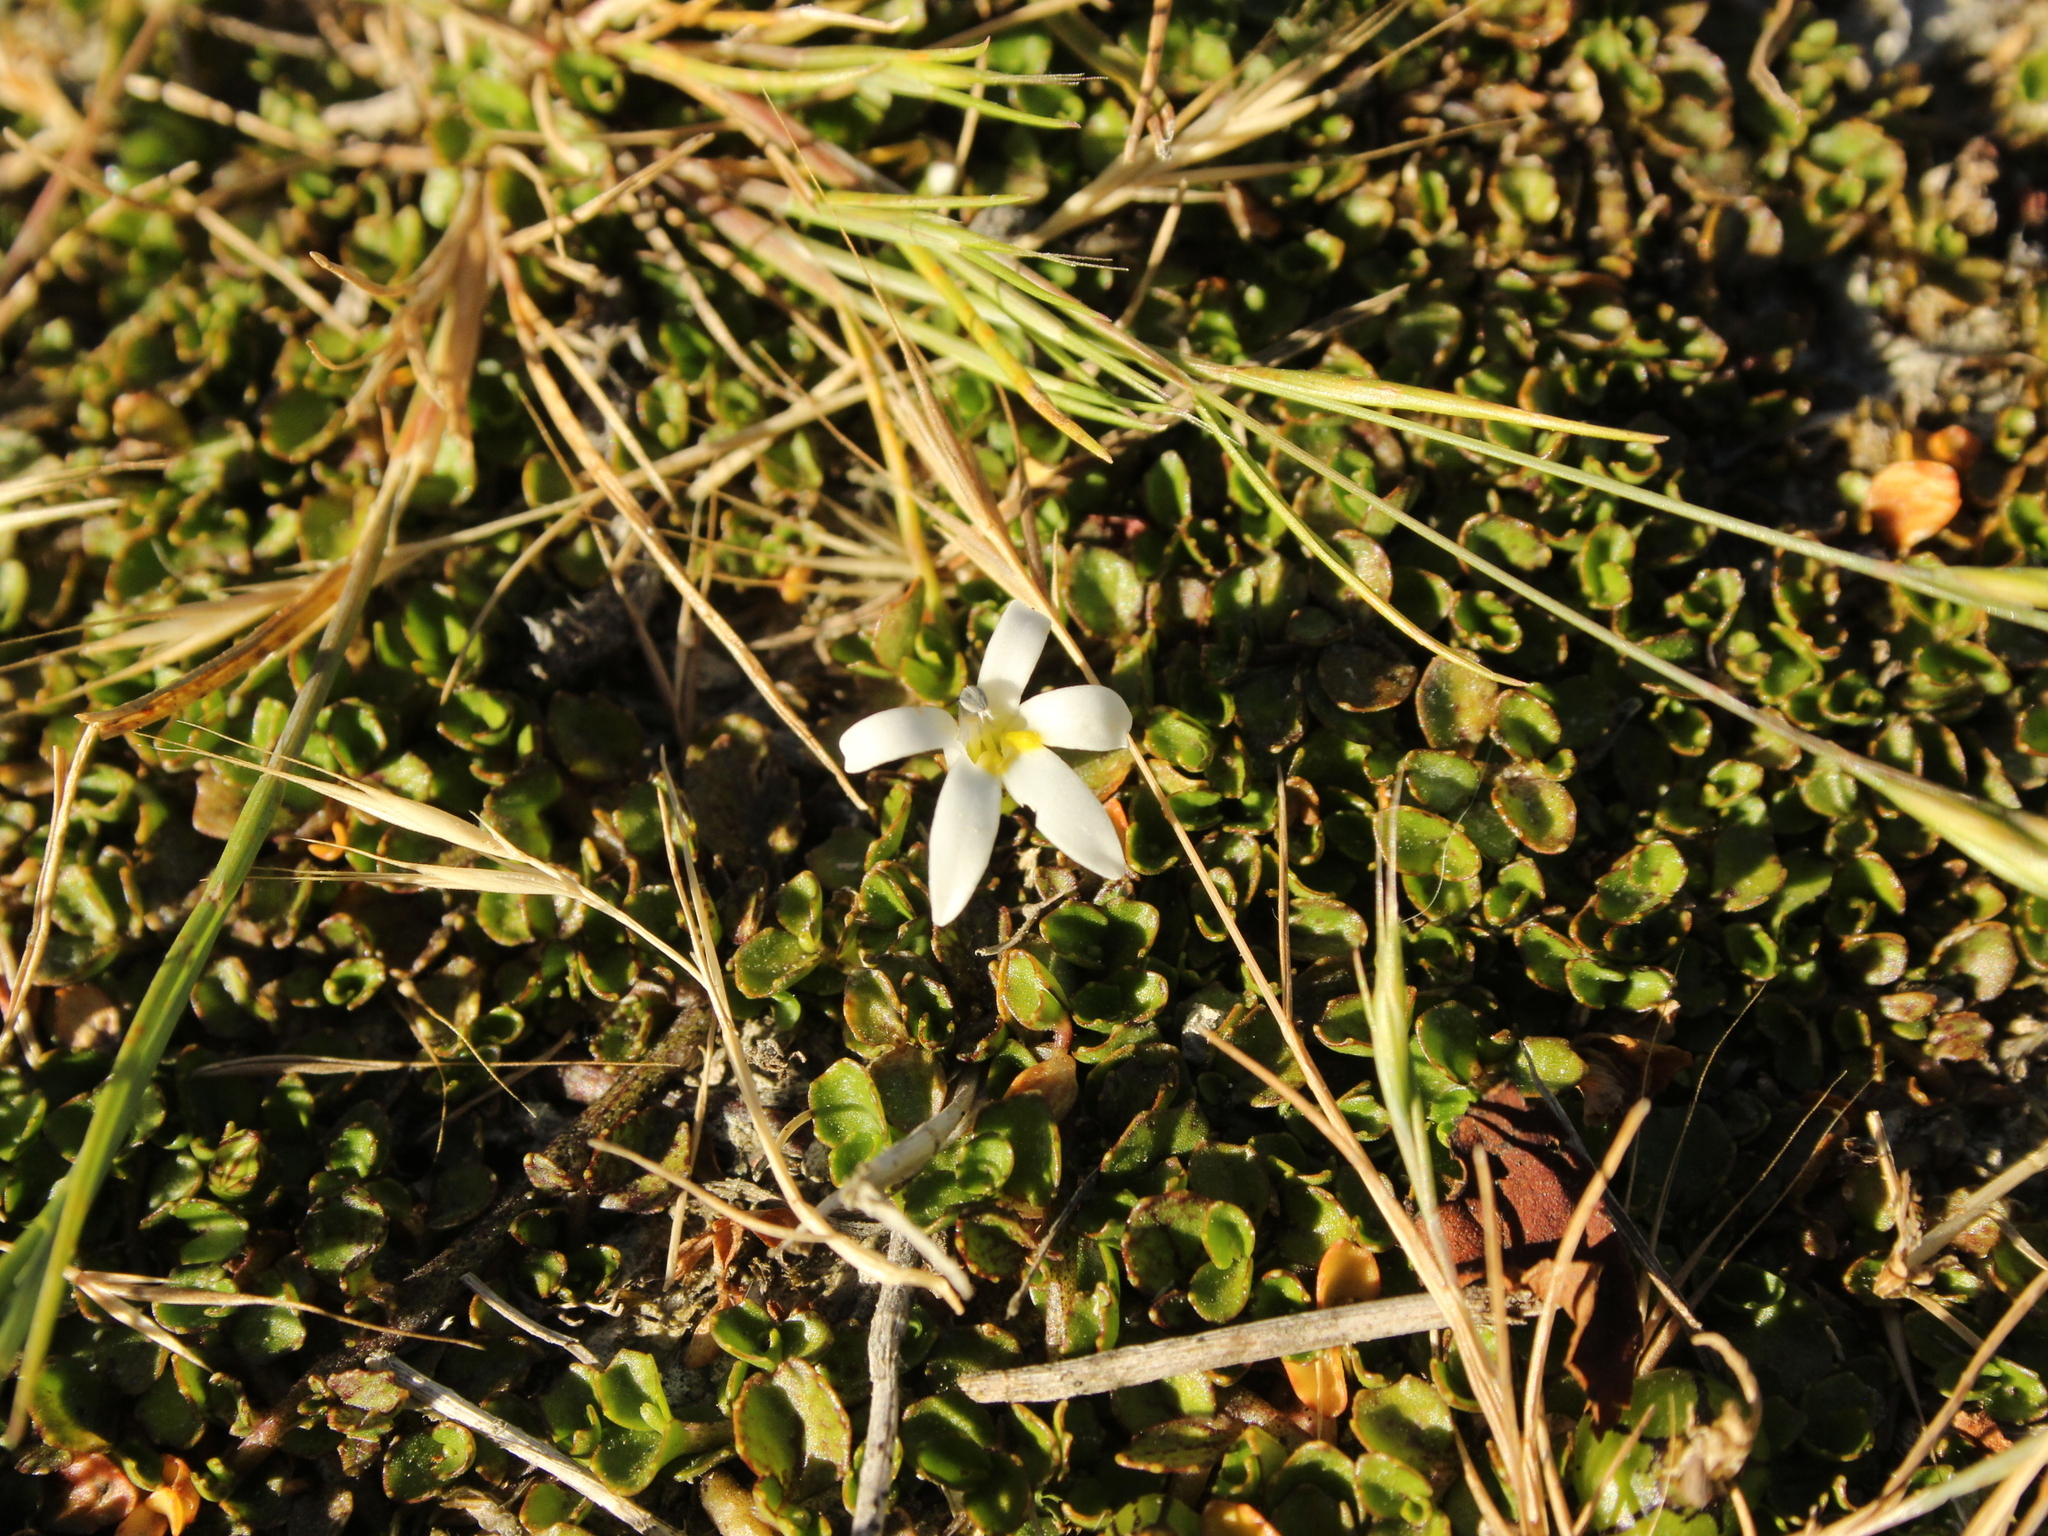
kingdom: Plantae
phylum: Tracheophyta
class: Magnoliopsida
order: Asterales
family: Campanulaceae
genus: Lobelia
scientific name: Lobelia angulata
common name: Lawn lobelia
